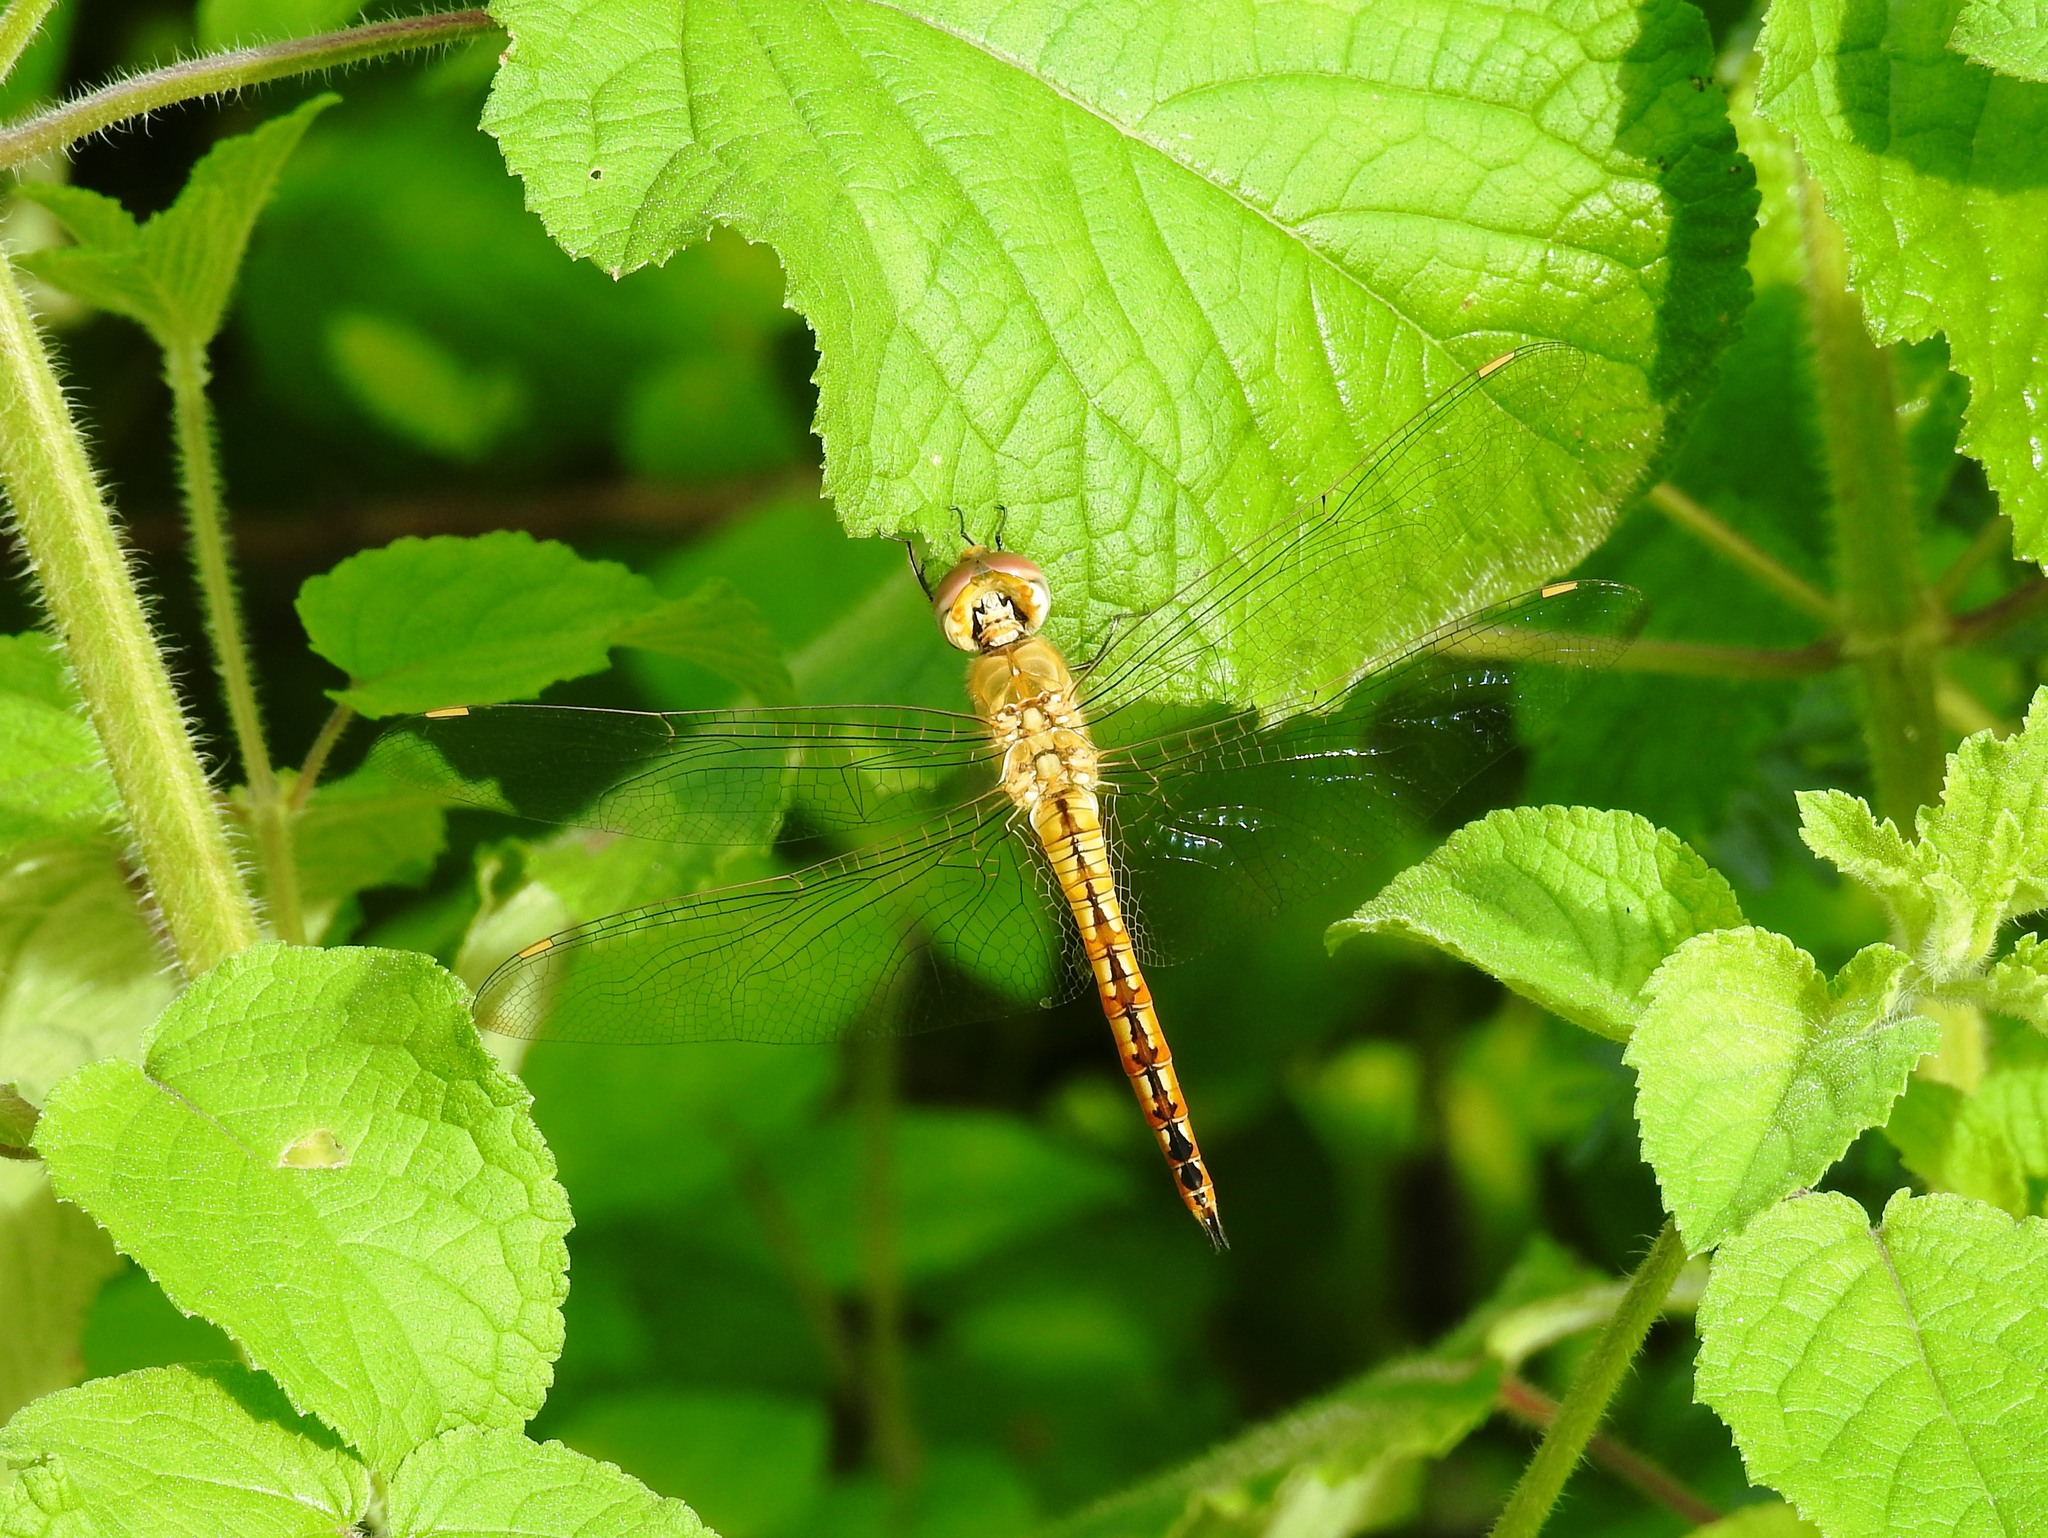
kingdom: Animalia
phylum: Arthropoda
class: Insecta
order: Odonata
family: Libellulidae
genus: Pantala
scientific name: Pantala flavescens
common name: Wandering glider
